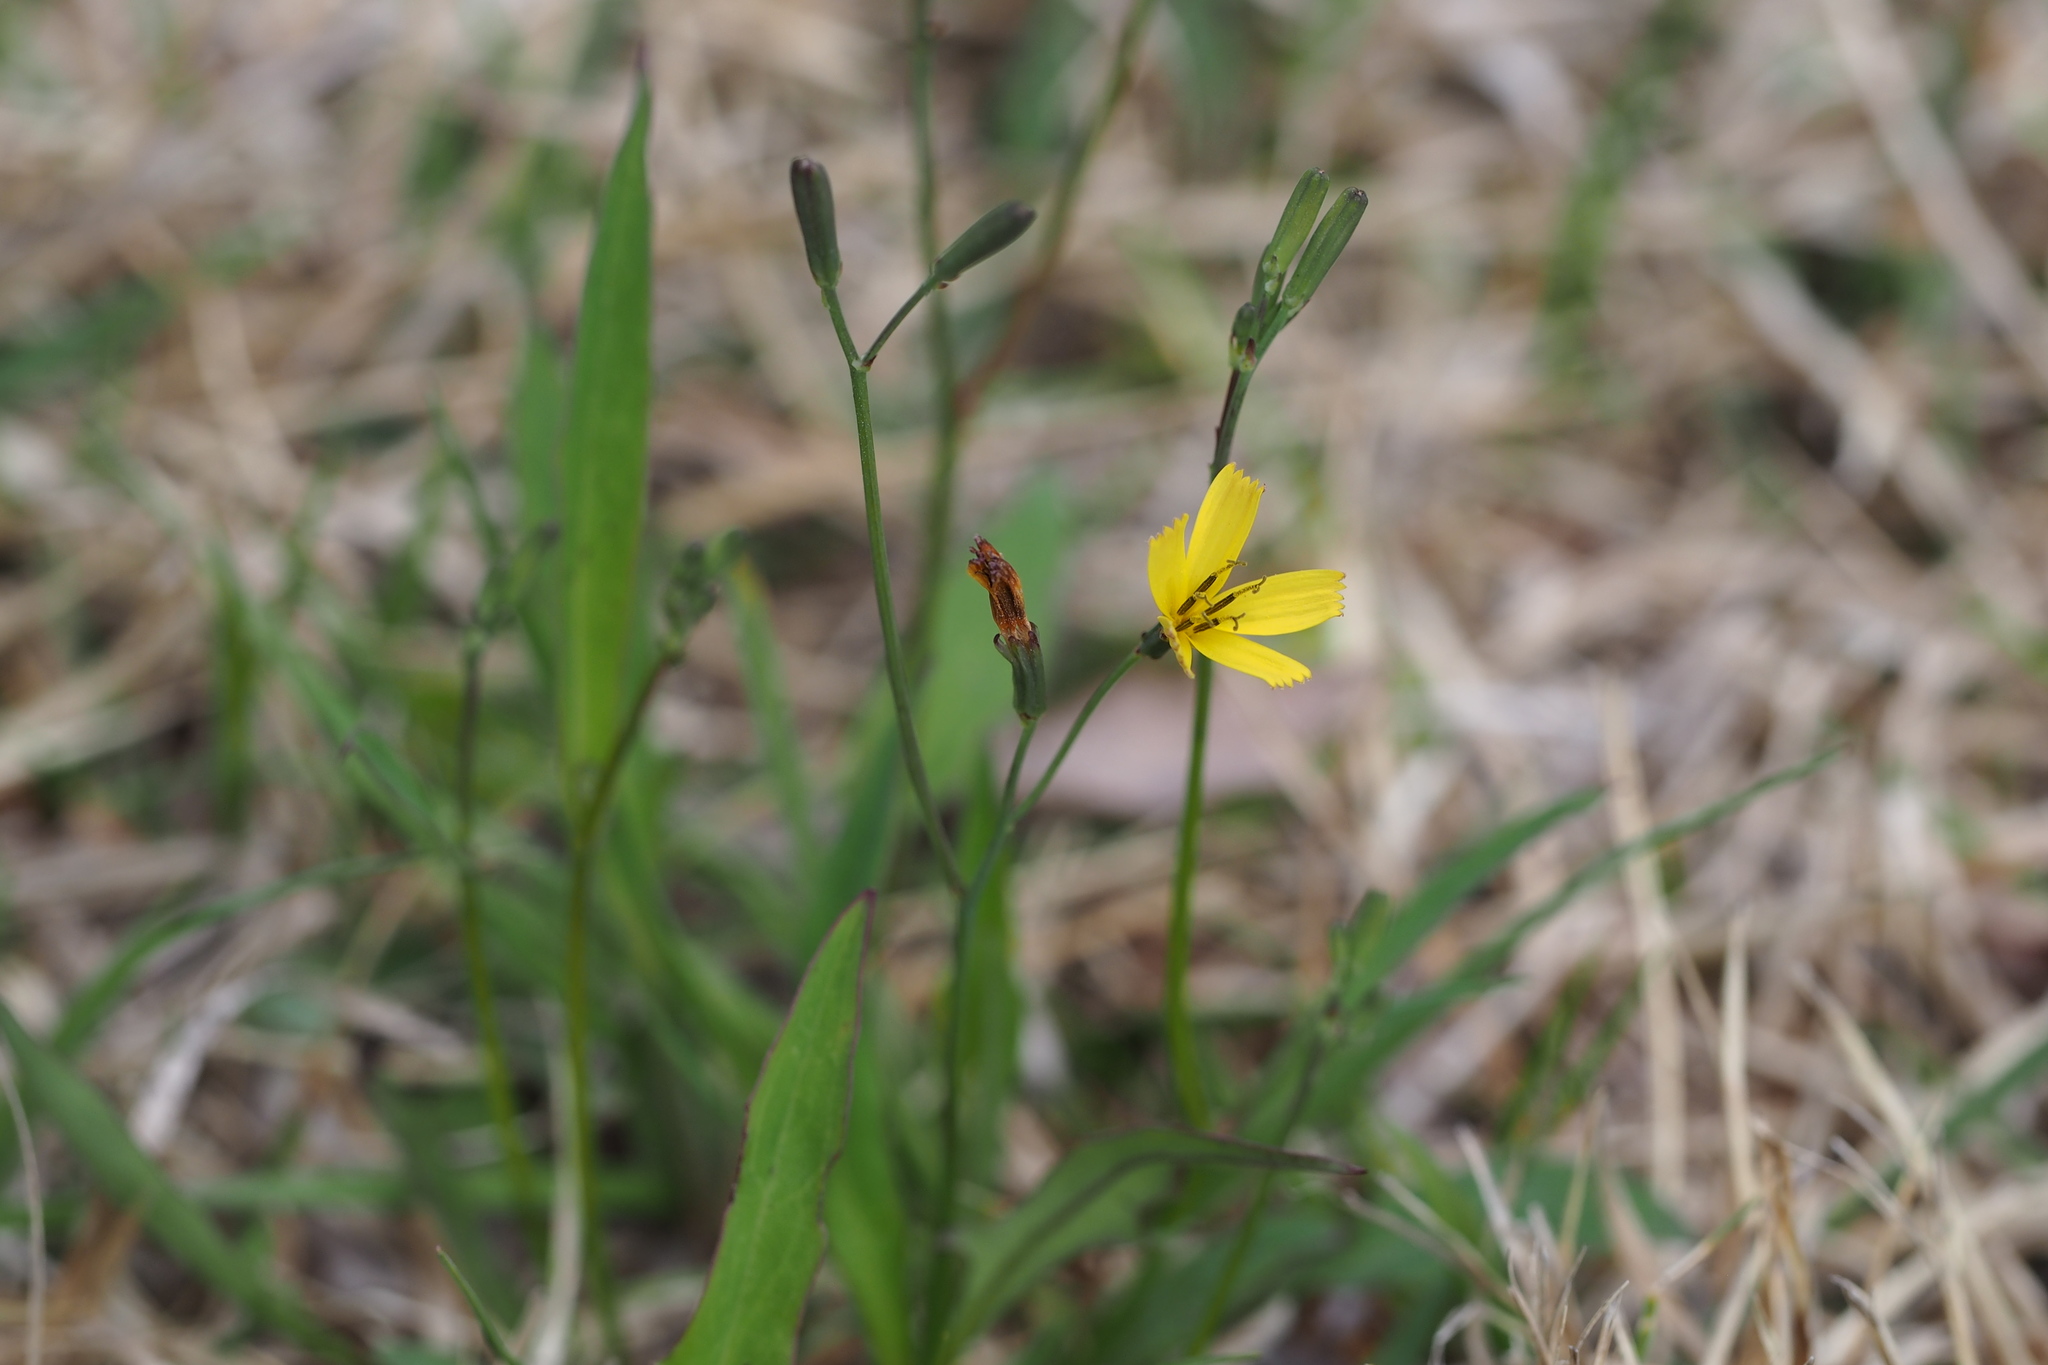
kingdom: Plantae
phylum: Tracheophyta
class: Magnoliopsida
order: Asterales
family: Asteraceae
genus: Ixeridium
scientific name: Ixeridium dentatum
